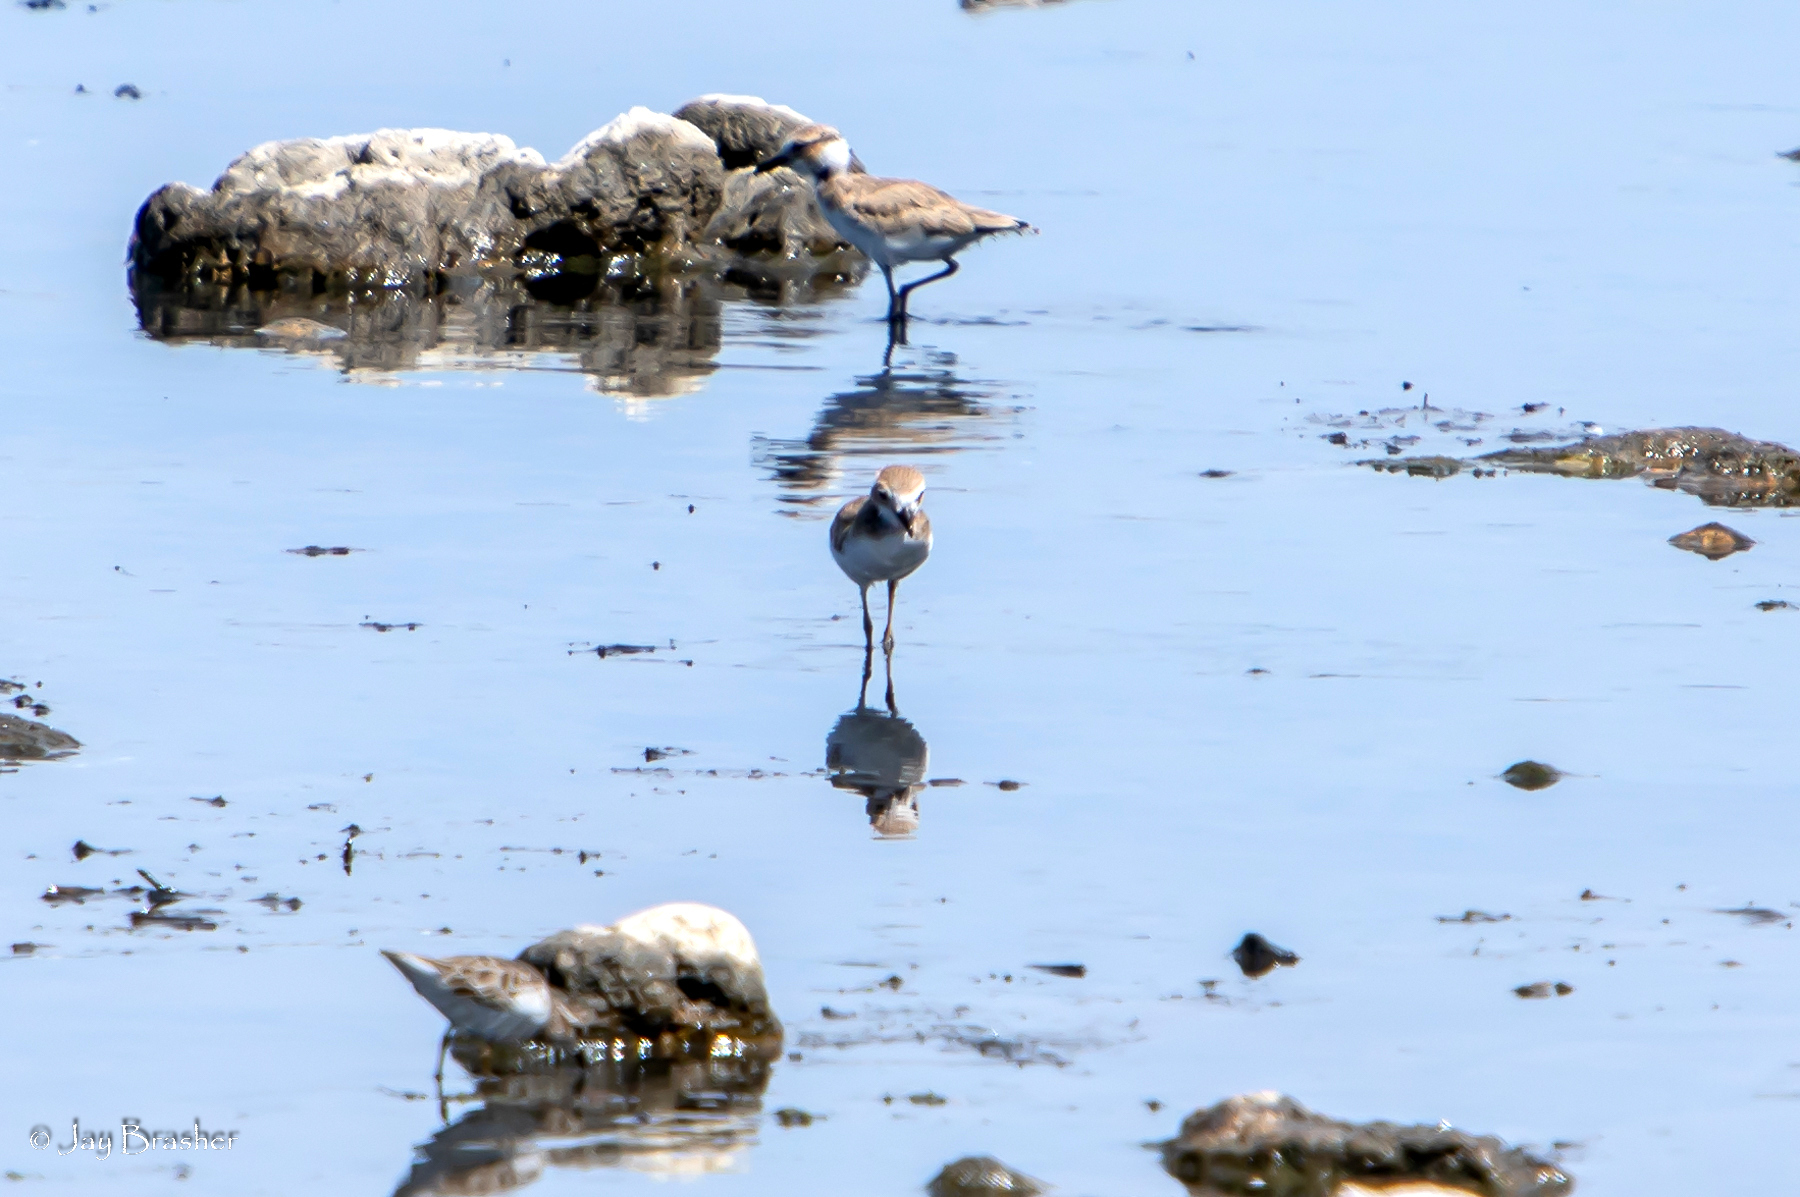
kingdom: Animalia
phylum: Chordata
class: Aves
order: Charadriiformes
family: Charadriidae
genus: Anarhynchus
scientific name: Anarhynchus
